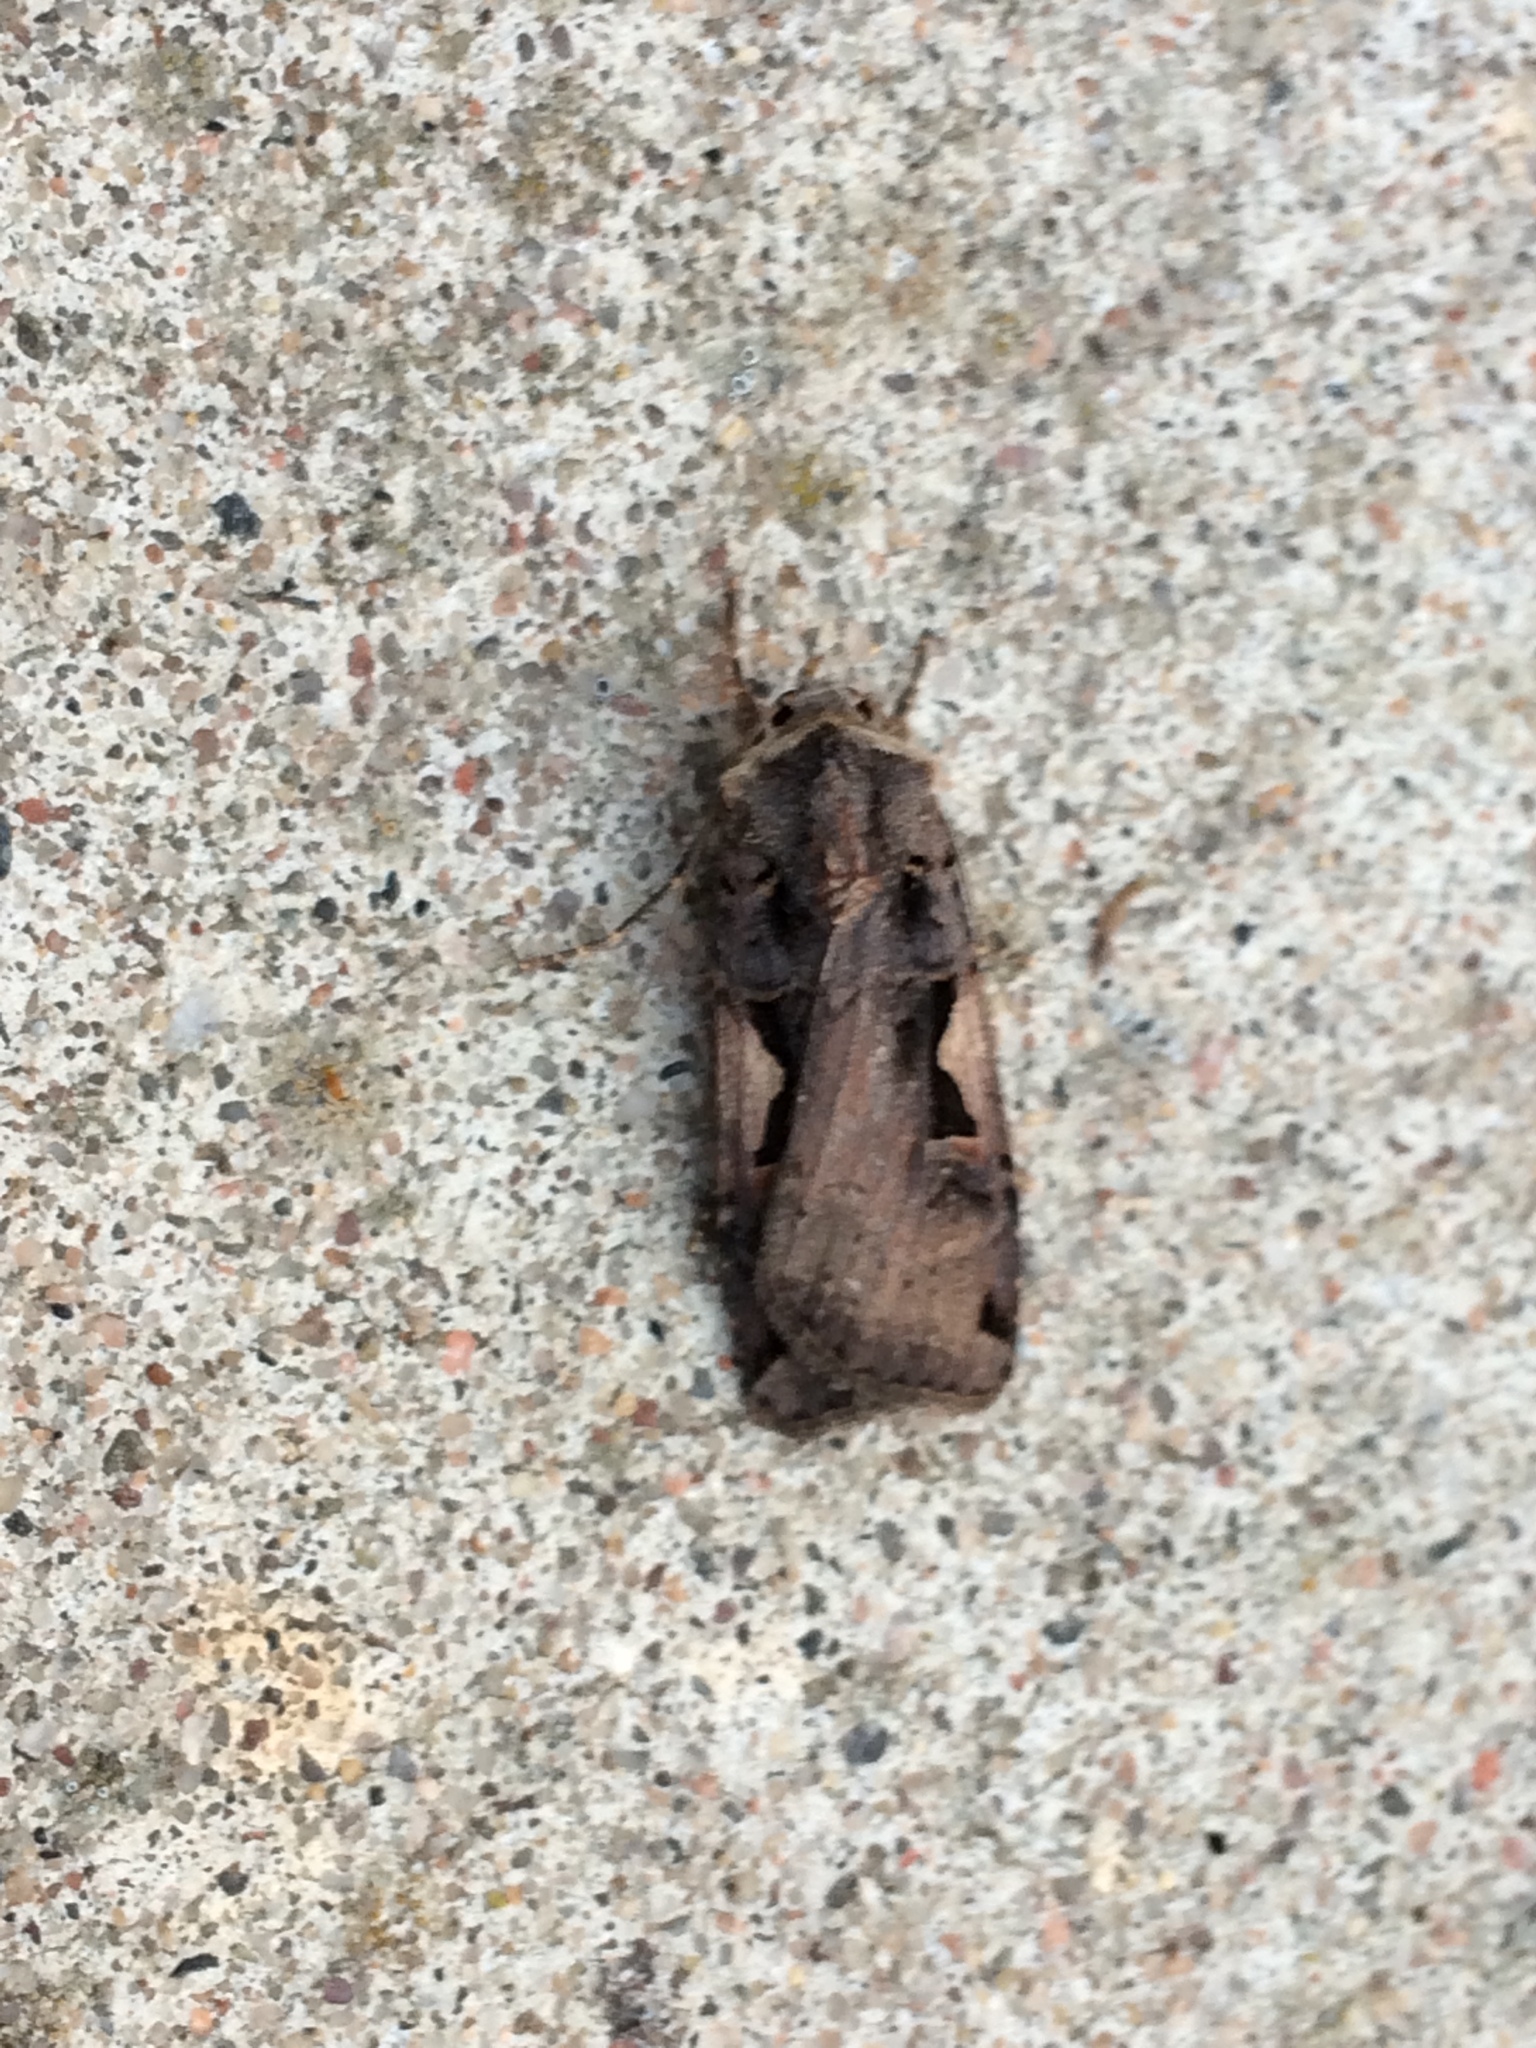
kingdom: Animalia
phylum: Arthropoda
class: Insecta
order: Lepidoptera
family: Noctuidae
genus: Xestia
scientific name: Xestia c-nigrum
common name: Setaceous hebrew character
